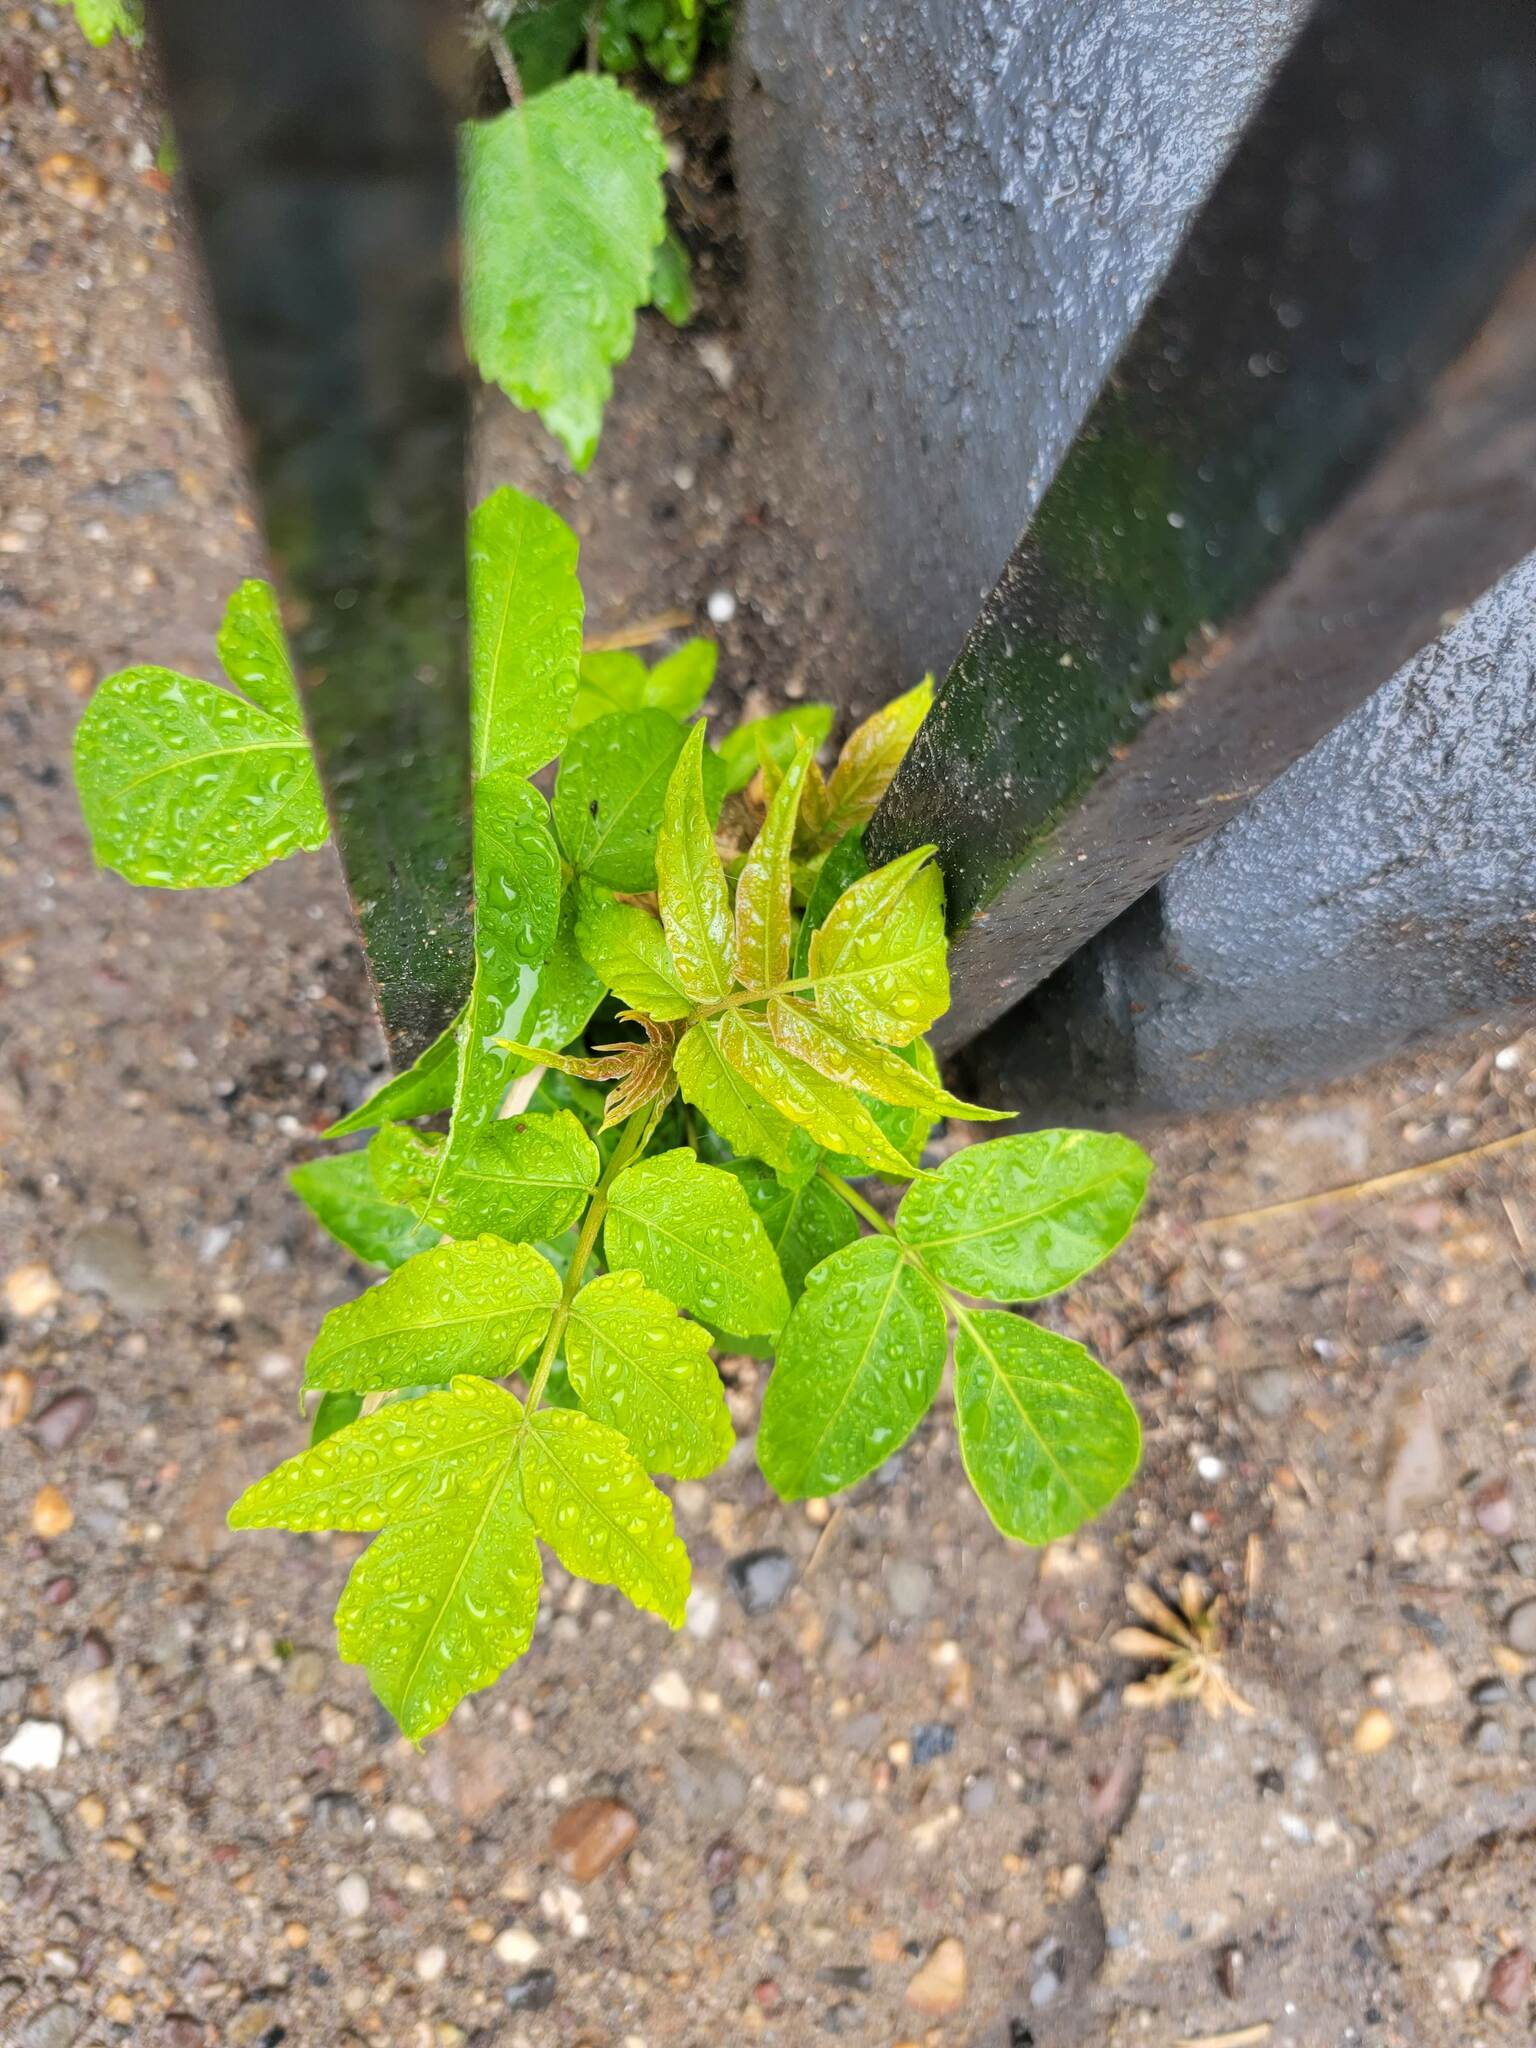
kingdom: Plantae
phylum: Tracheophyta
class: Magnoliopsida
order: Sapindales
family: Simaroubaceae
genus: Ailanthus
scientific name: Ailanthus altissima
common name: Tree-of-heaven
